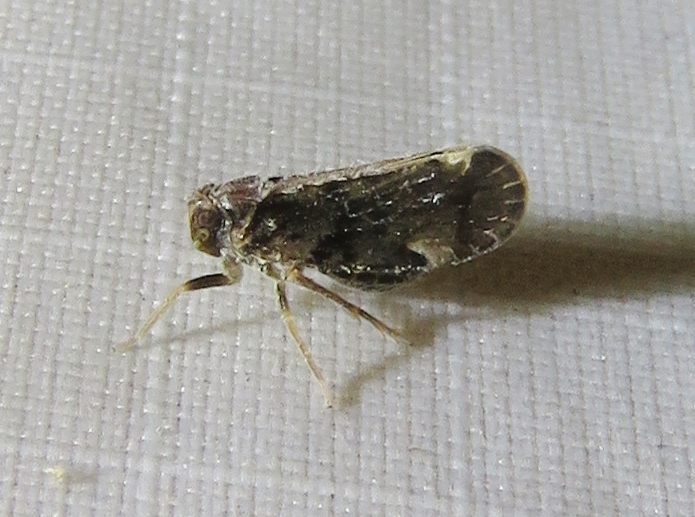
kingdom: Animalia
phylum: Arthropoda
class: Insecta
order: Hemiptera
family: Cixiidae
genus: Monorachis
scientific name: Monorachis sordulentus
